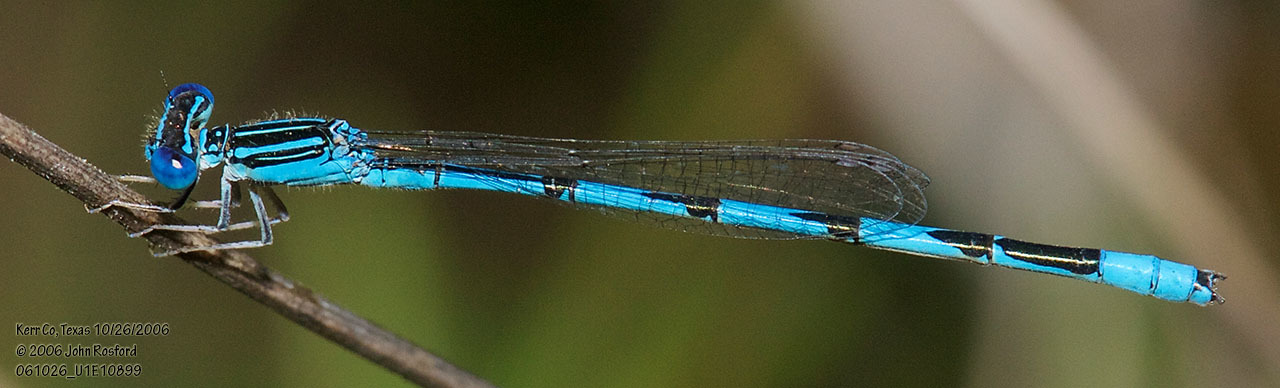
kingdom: Animalia
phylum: Arthropoda
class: Insecta
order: Odonata
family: Coenagrionidae
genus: Enallagma
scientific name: Enallagma basidens
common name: Double-striped bluet
